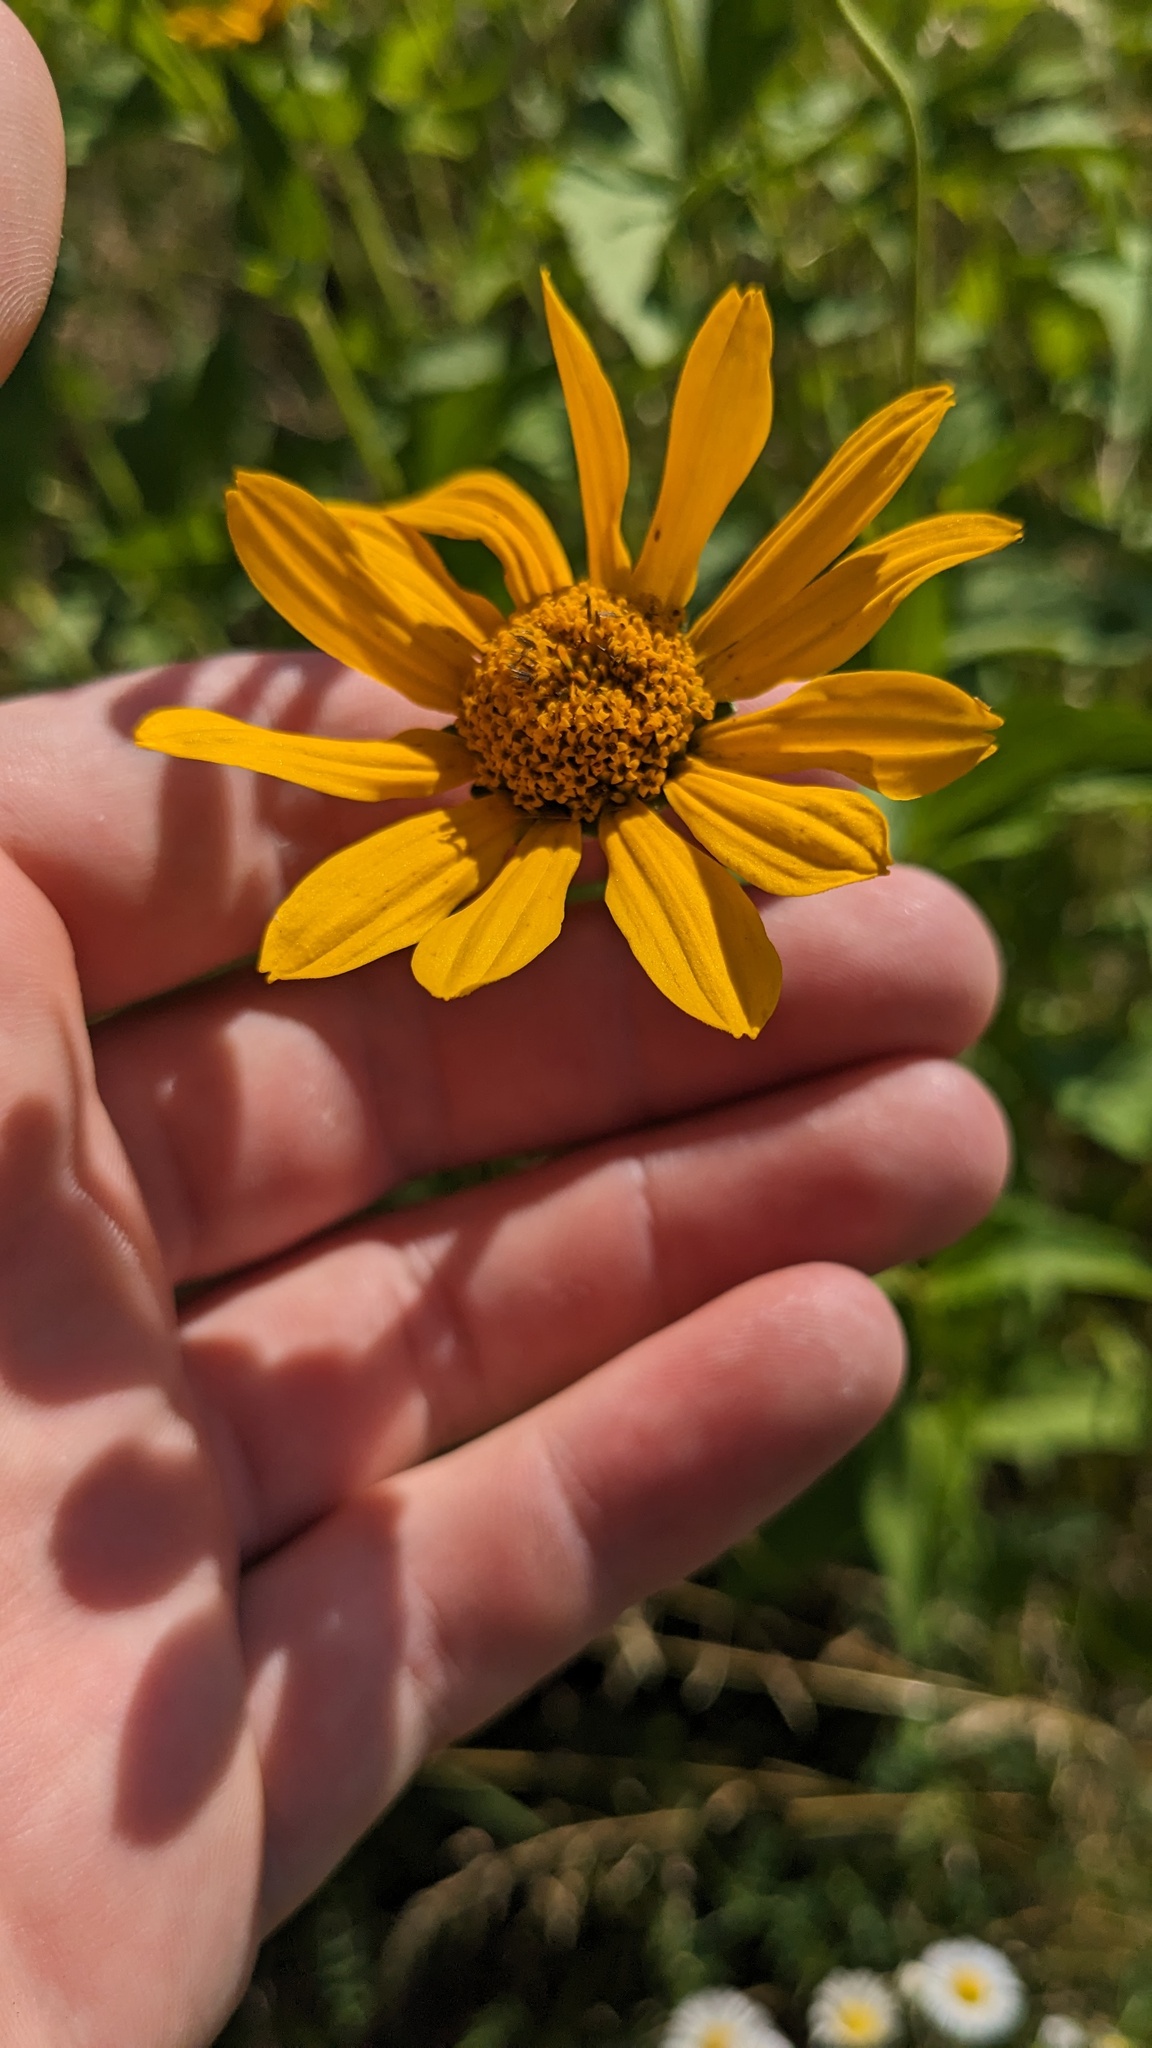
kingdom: Plantae
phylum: Tracheophyta
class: Magnoliopsida
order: Asterales
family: Asteraceae
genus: Heliopsis
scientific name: Heliopsis helianthoides
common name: False sunflower
